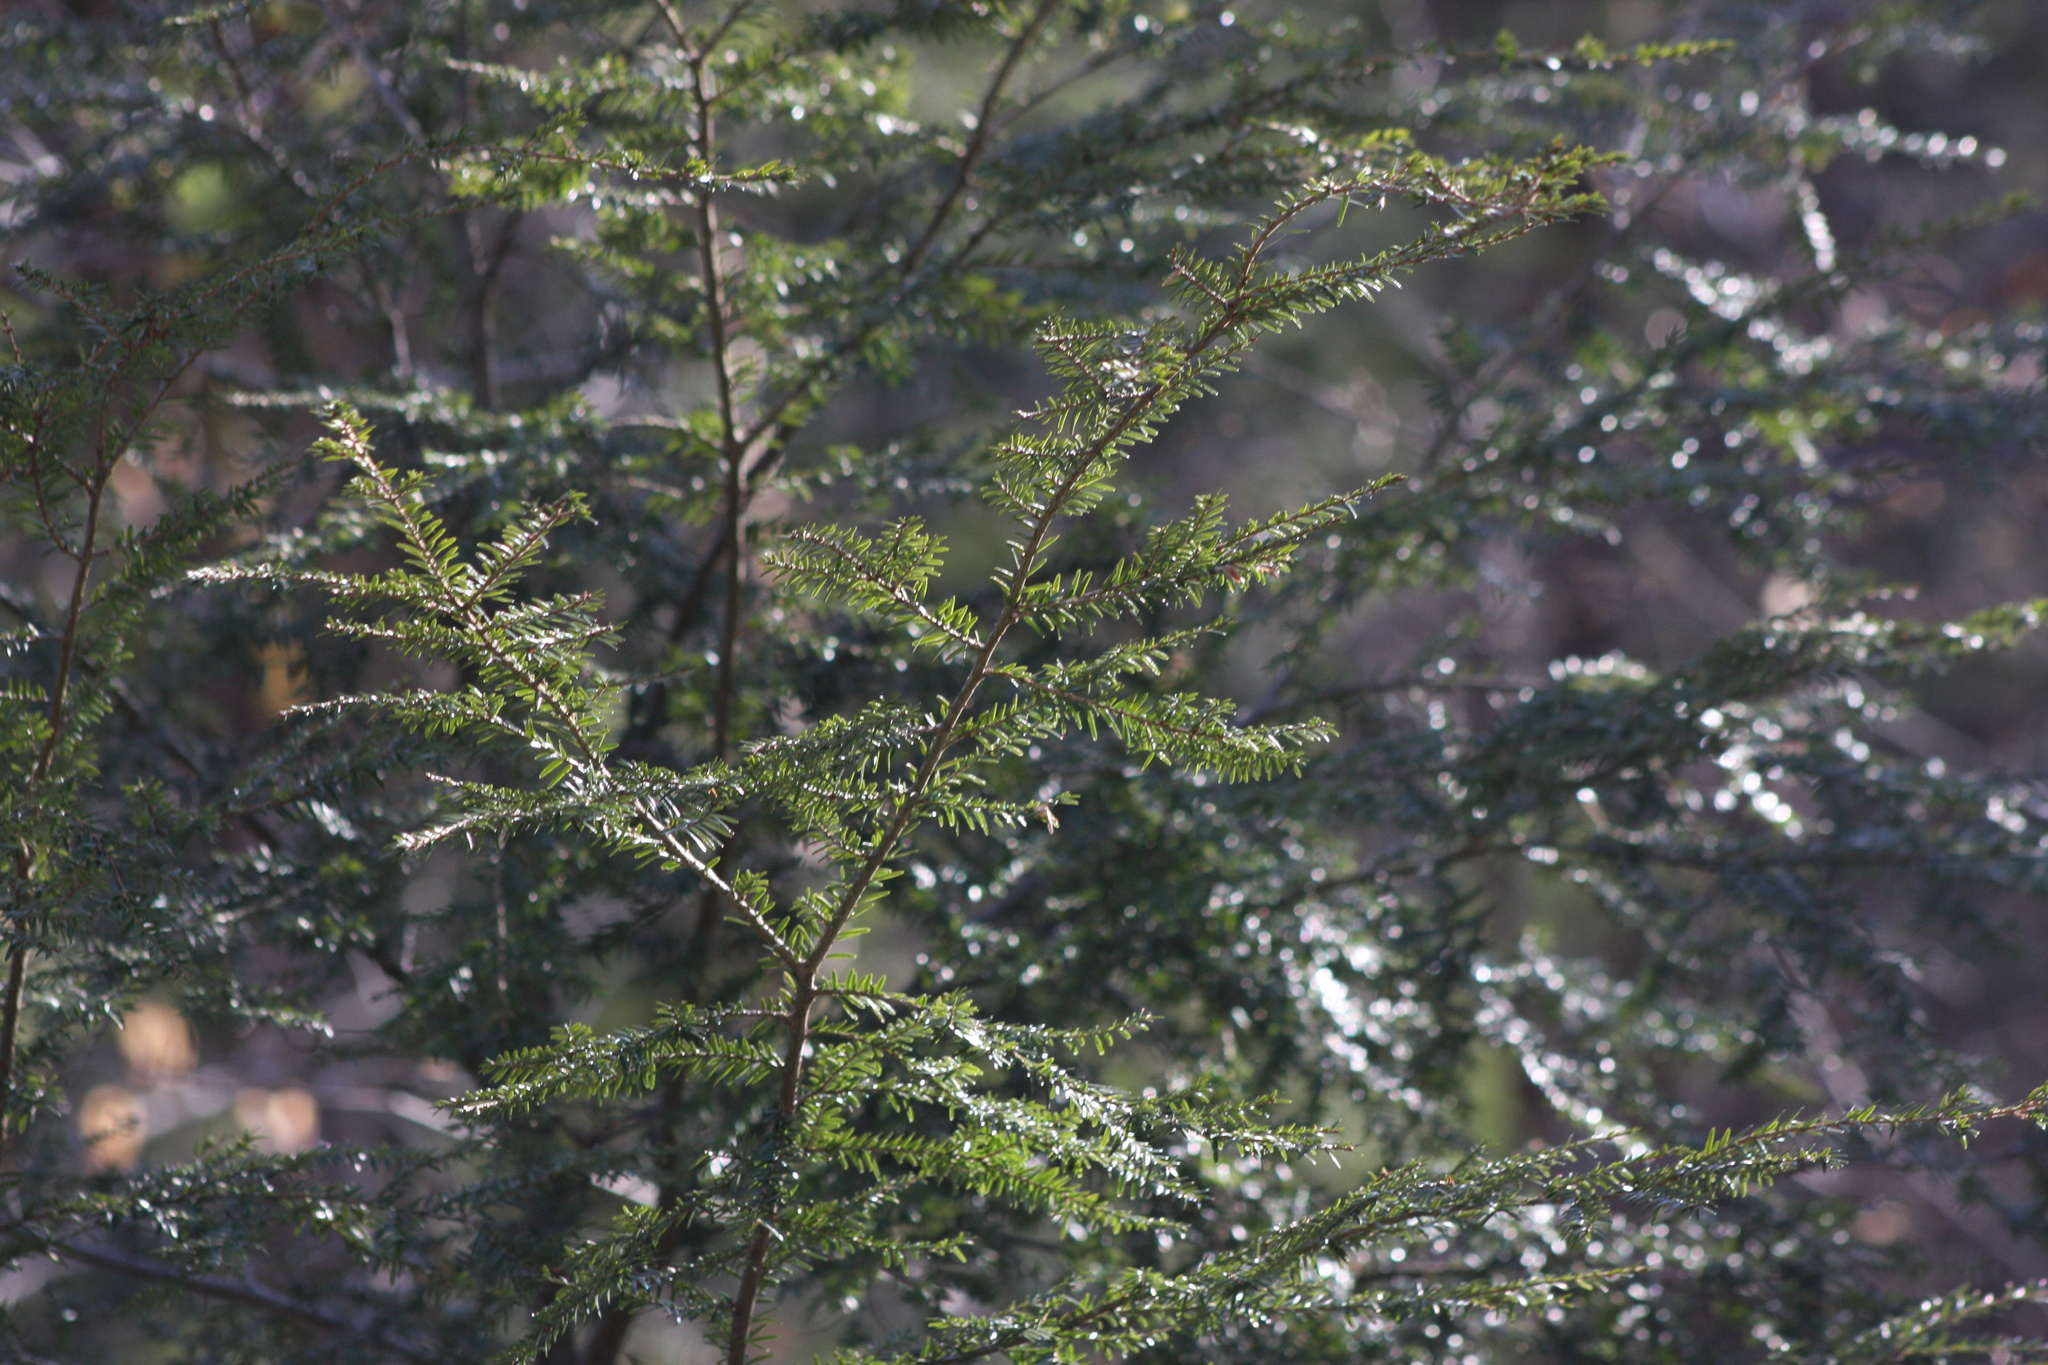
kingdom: Plantae
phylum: Tracheophyta
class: Pinopsida
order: Pinales
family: Pinaceae
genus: Tsuga
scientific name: Tsuga canadensis
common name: Eastern hemlock
